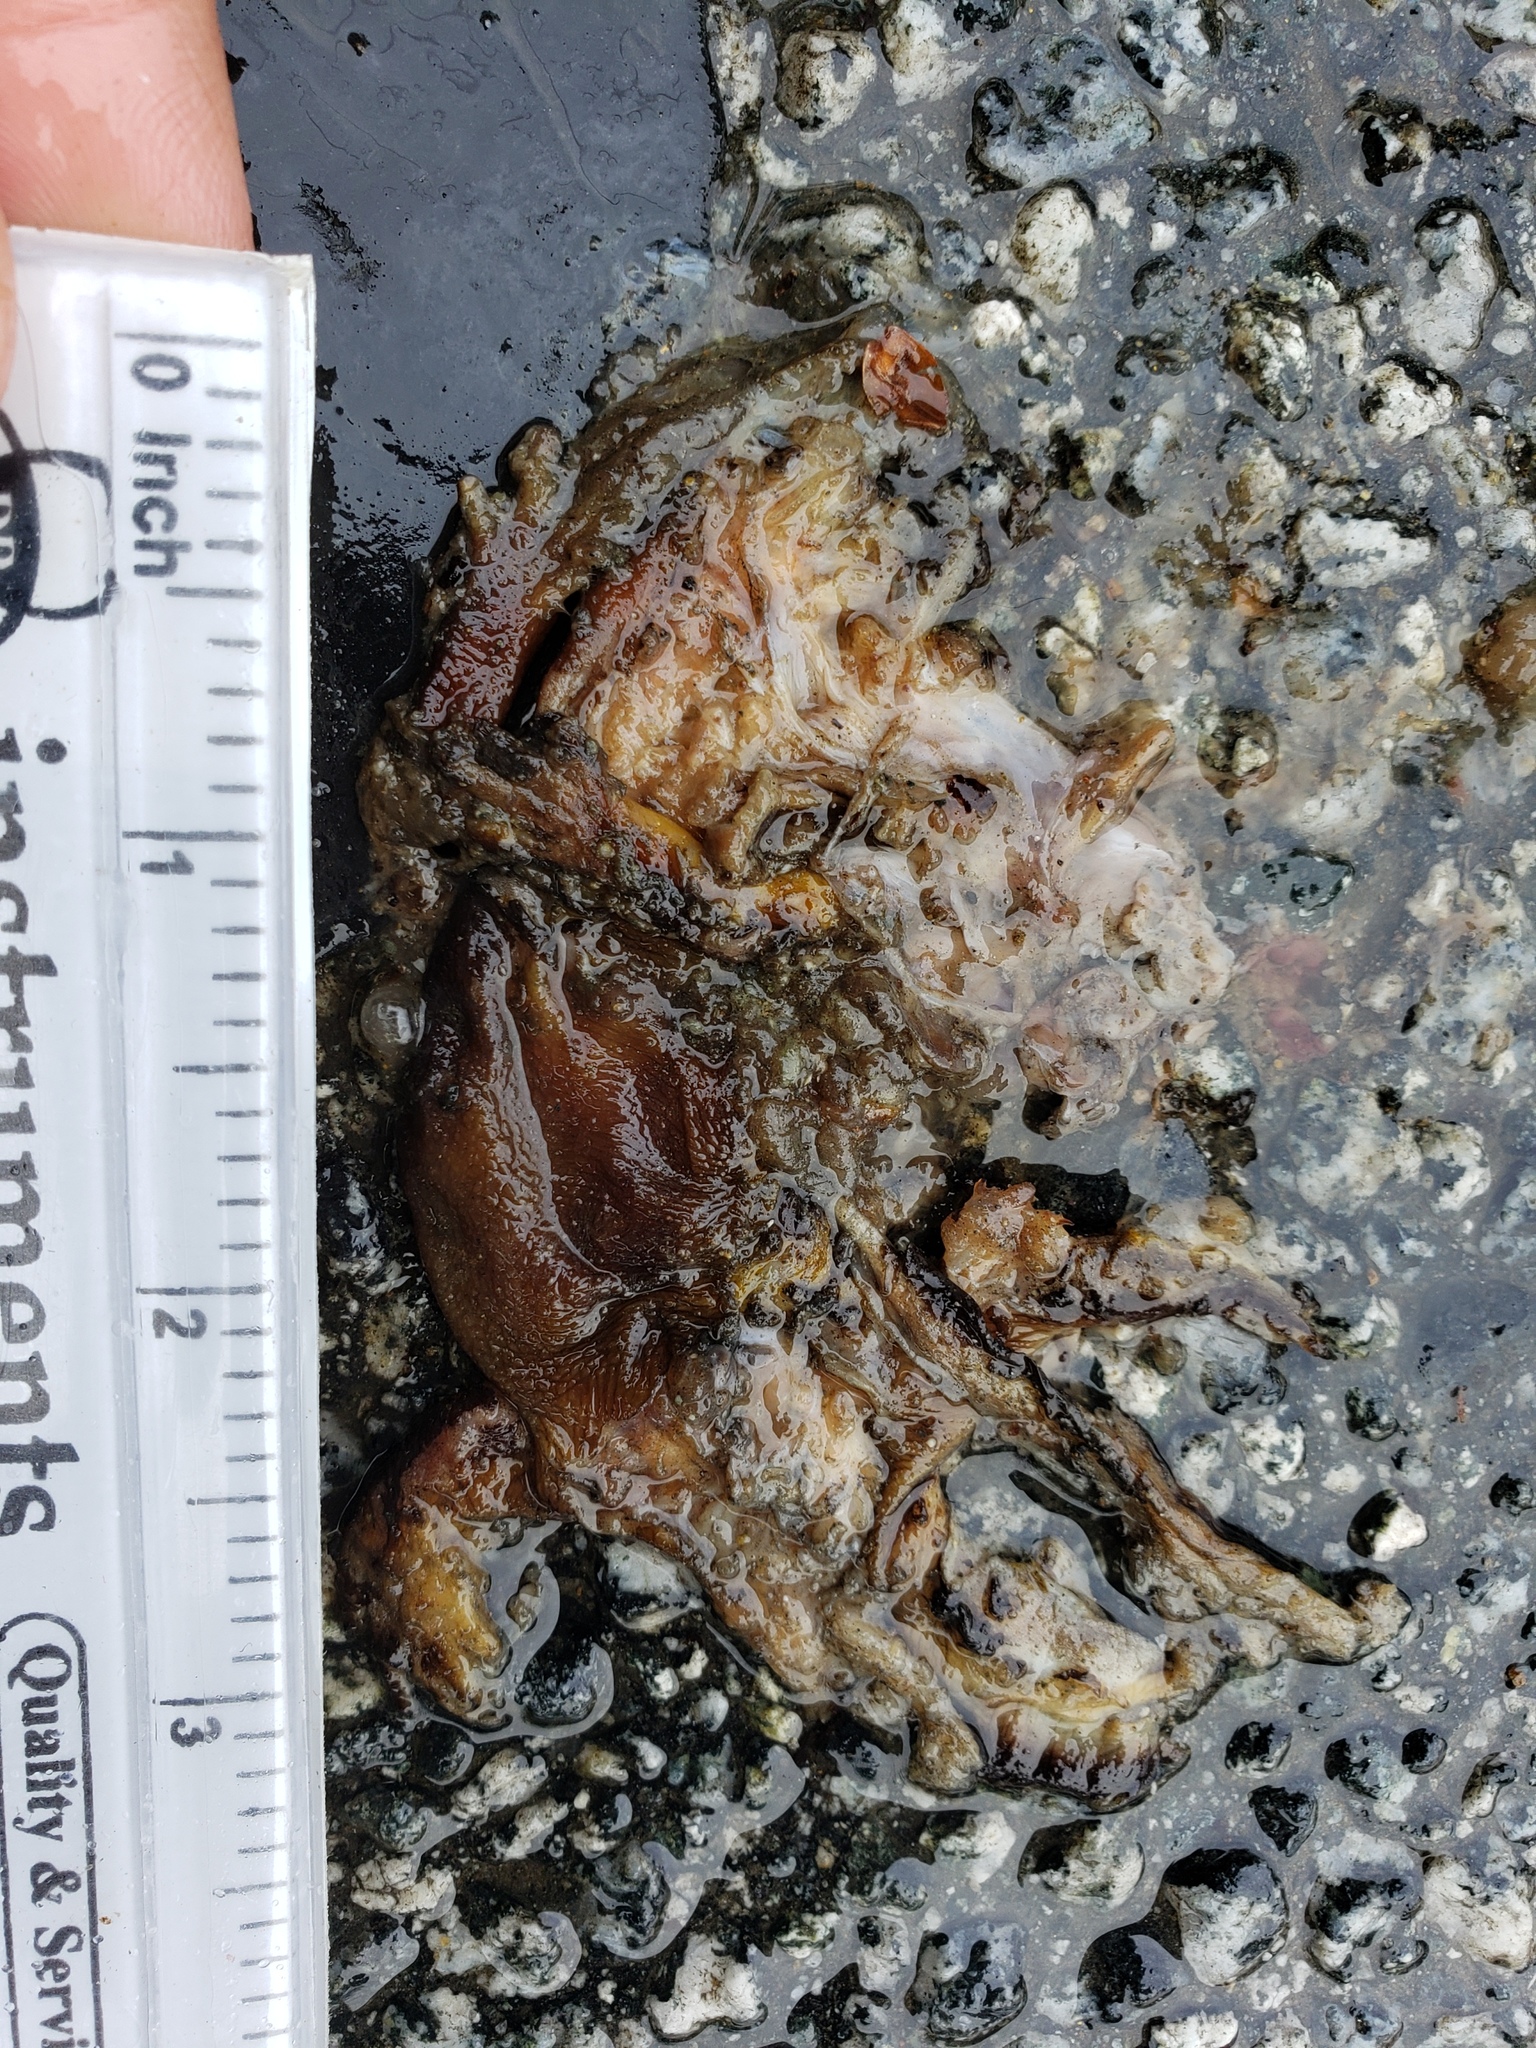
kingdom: Animalia
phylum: Chordata
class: Amphibia
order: Caudata
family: Salamandridae
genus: Taricha
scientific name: Taricha
